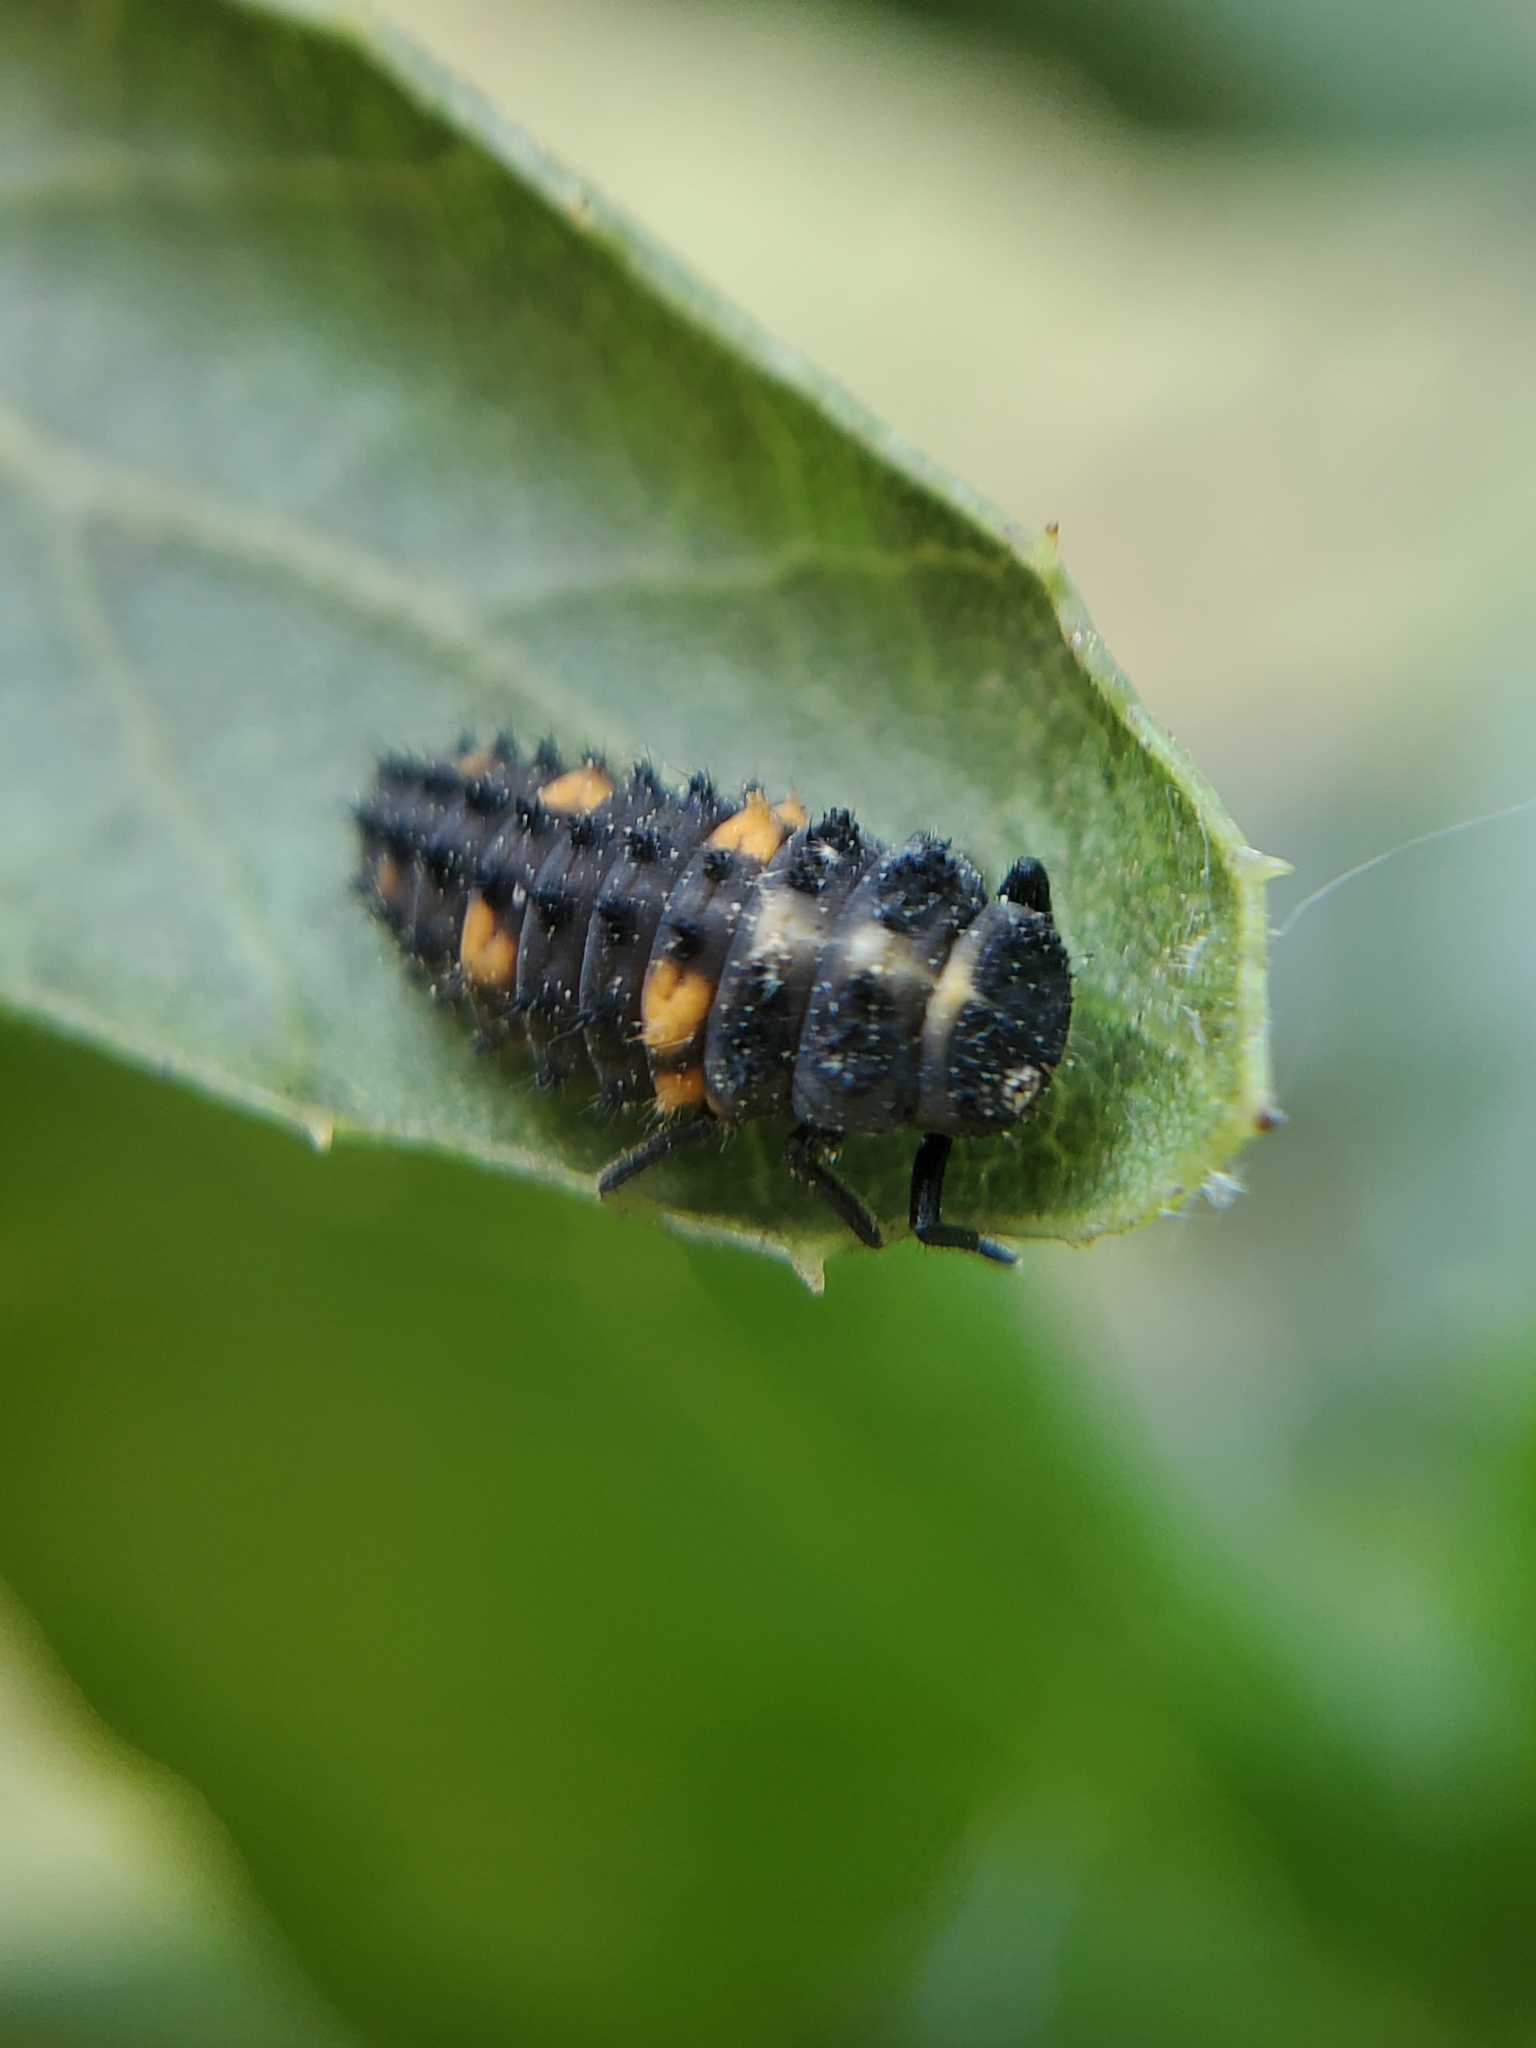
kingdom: Animalia
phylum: Arthropoda
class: Insecta
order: Coleoptera
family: Coccinellidae
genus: Coccinella
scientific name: Coccinella septempunctata
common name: Sevenspotted lady beetle
